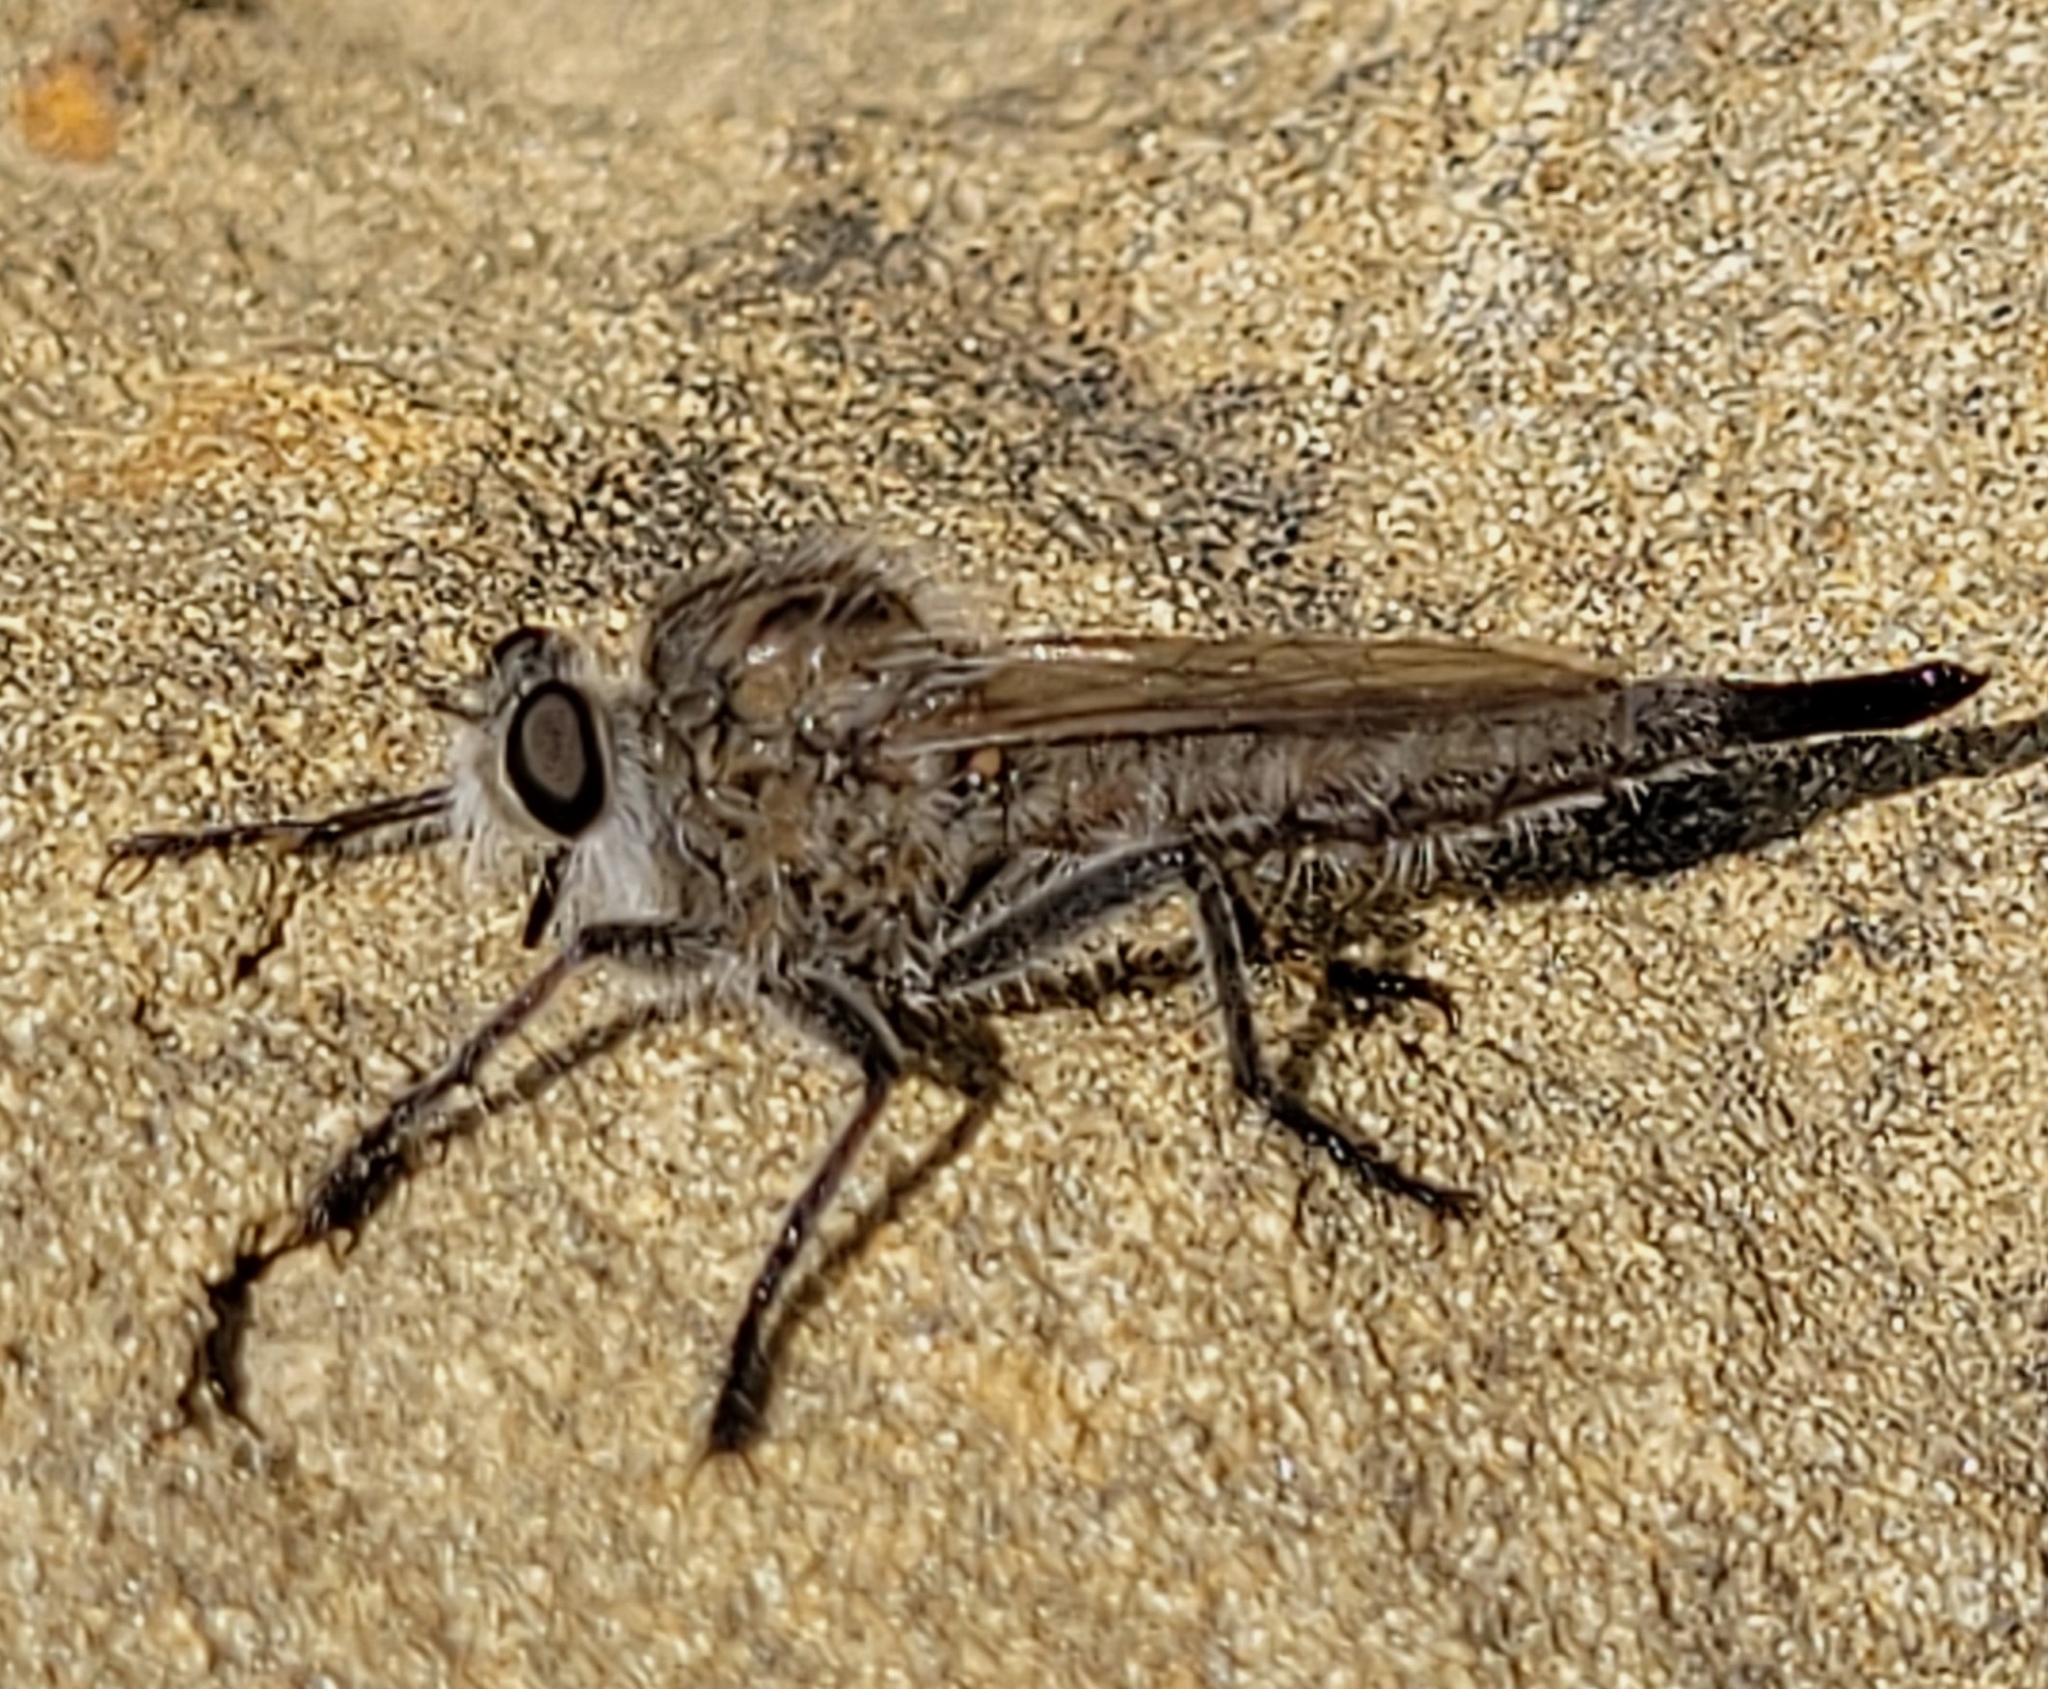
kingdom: Animalia
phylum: Arthropoda
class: Insecta
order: Diptera
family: Asilidae
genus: Efferia
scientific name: Efferia costalis
